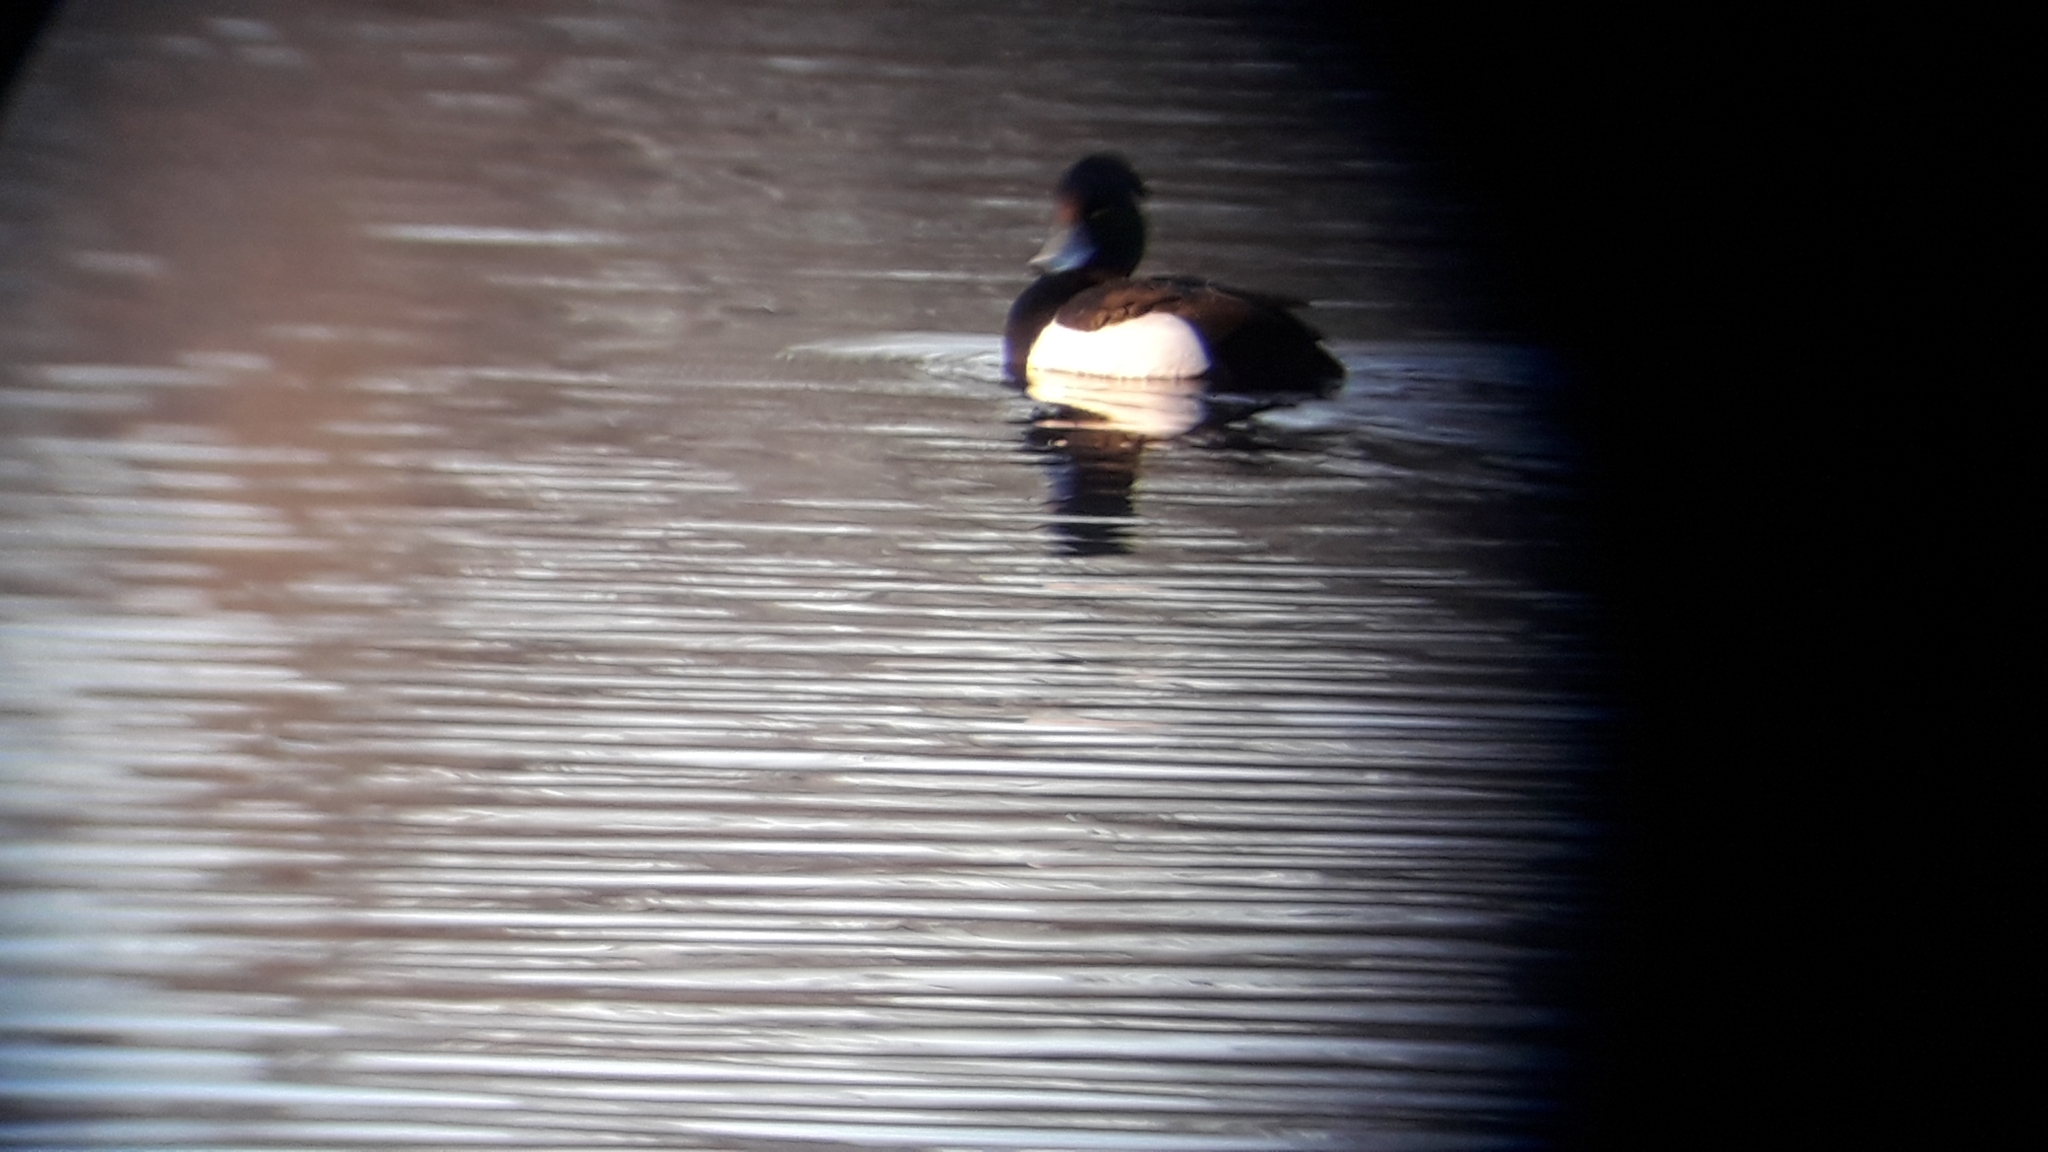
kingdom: Animalia
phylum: Chordata
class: Aves
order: Anseriformes
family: Anatidae
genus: Aythya
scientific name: Aythya fuligula
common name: Tufted duck
